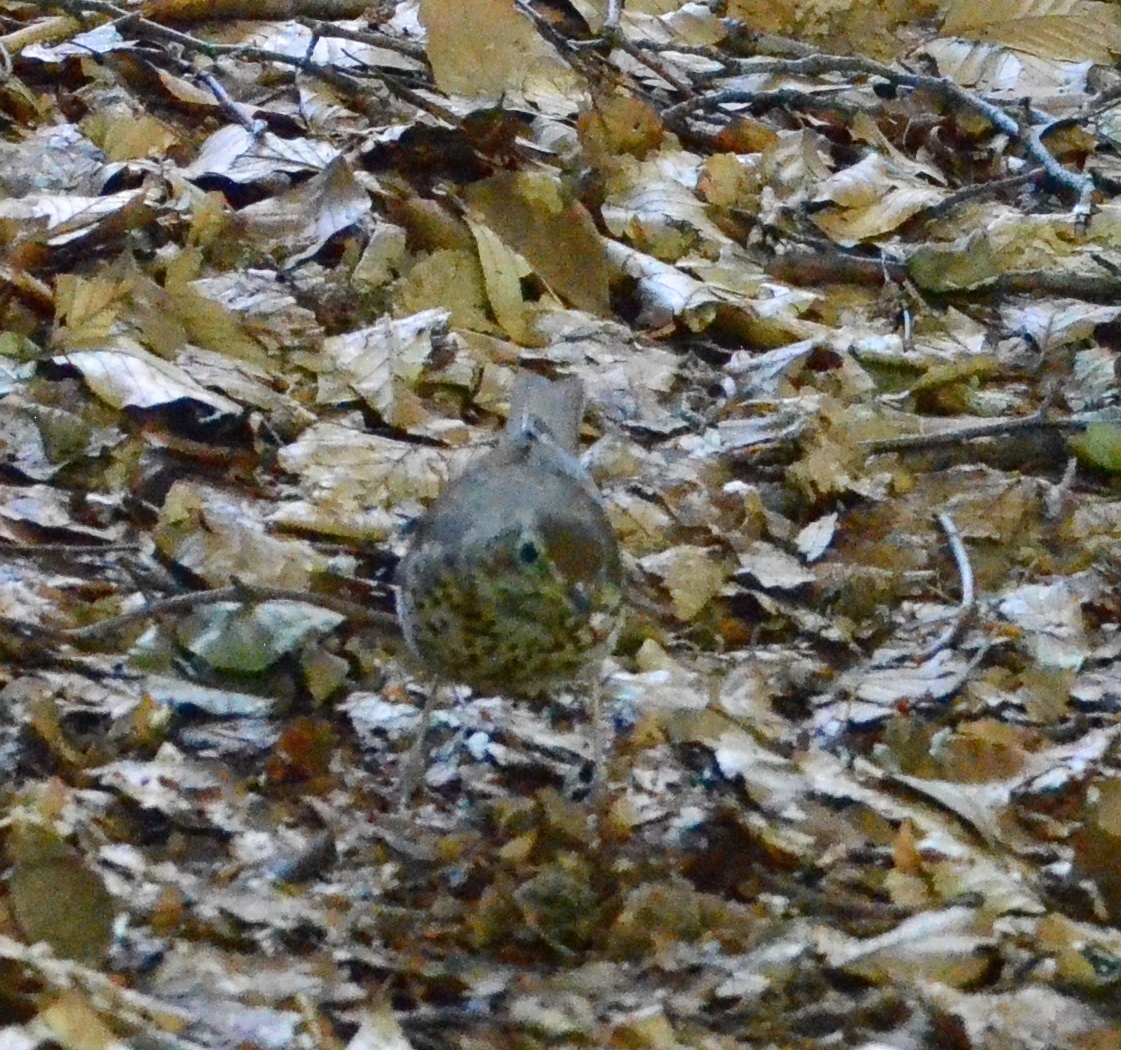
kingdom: Animalia
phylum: Chordata
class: Aves
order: Passeriformes
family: Turdidae
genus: Turdus
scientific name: Turdus philomelos
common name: Song thrush
